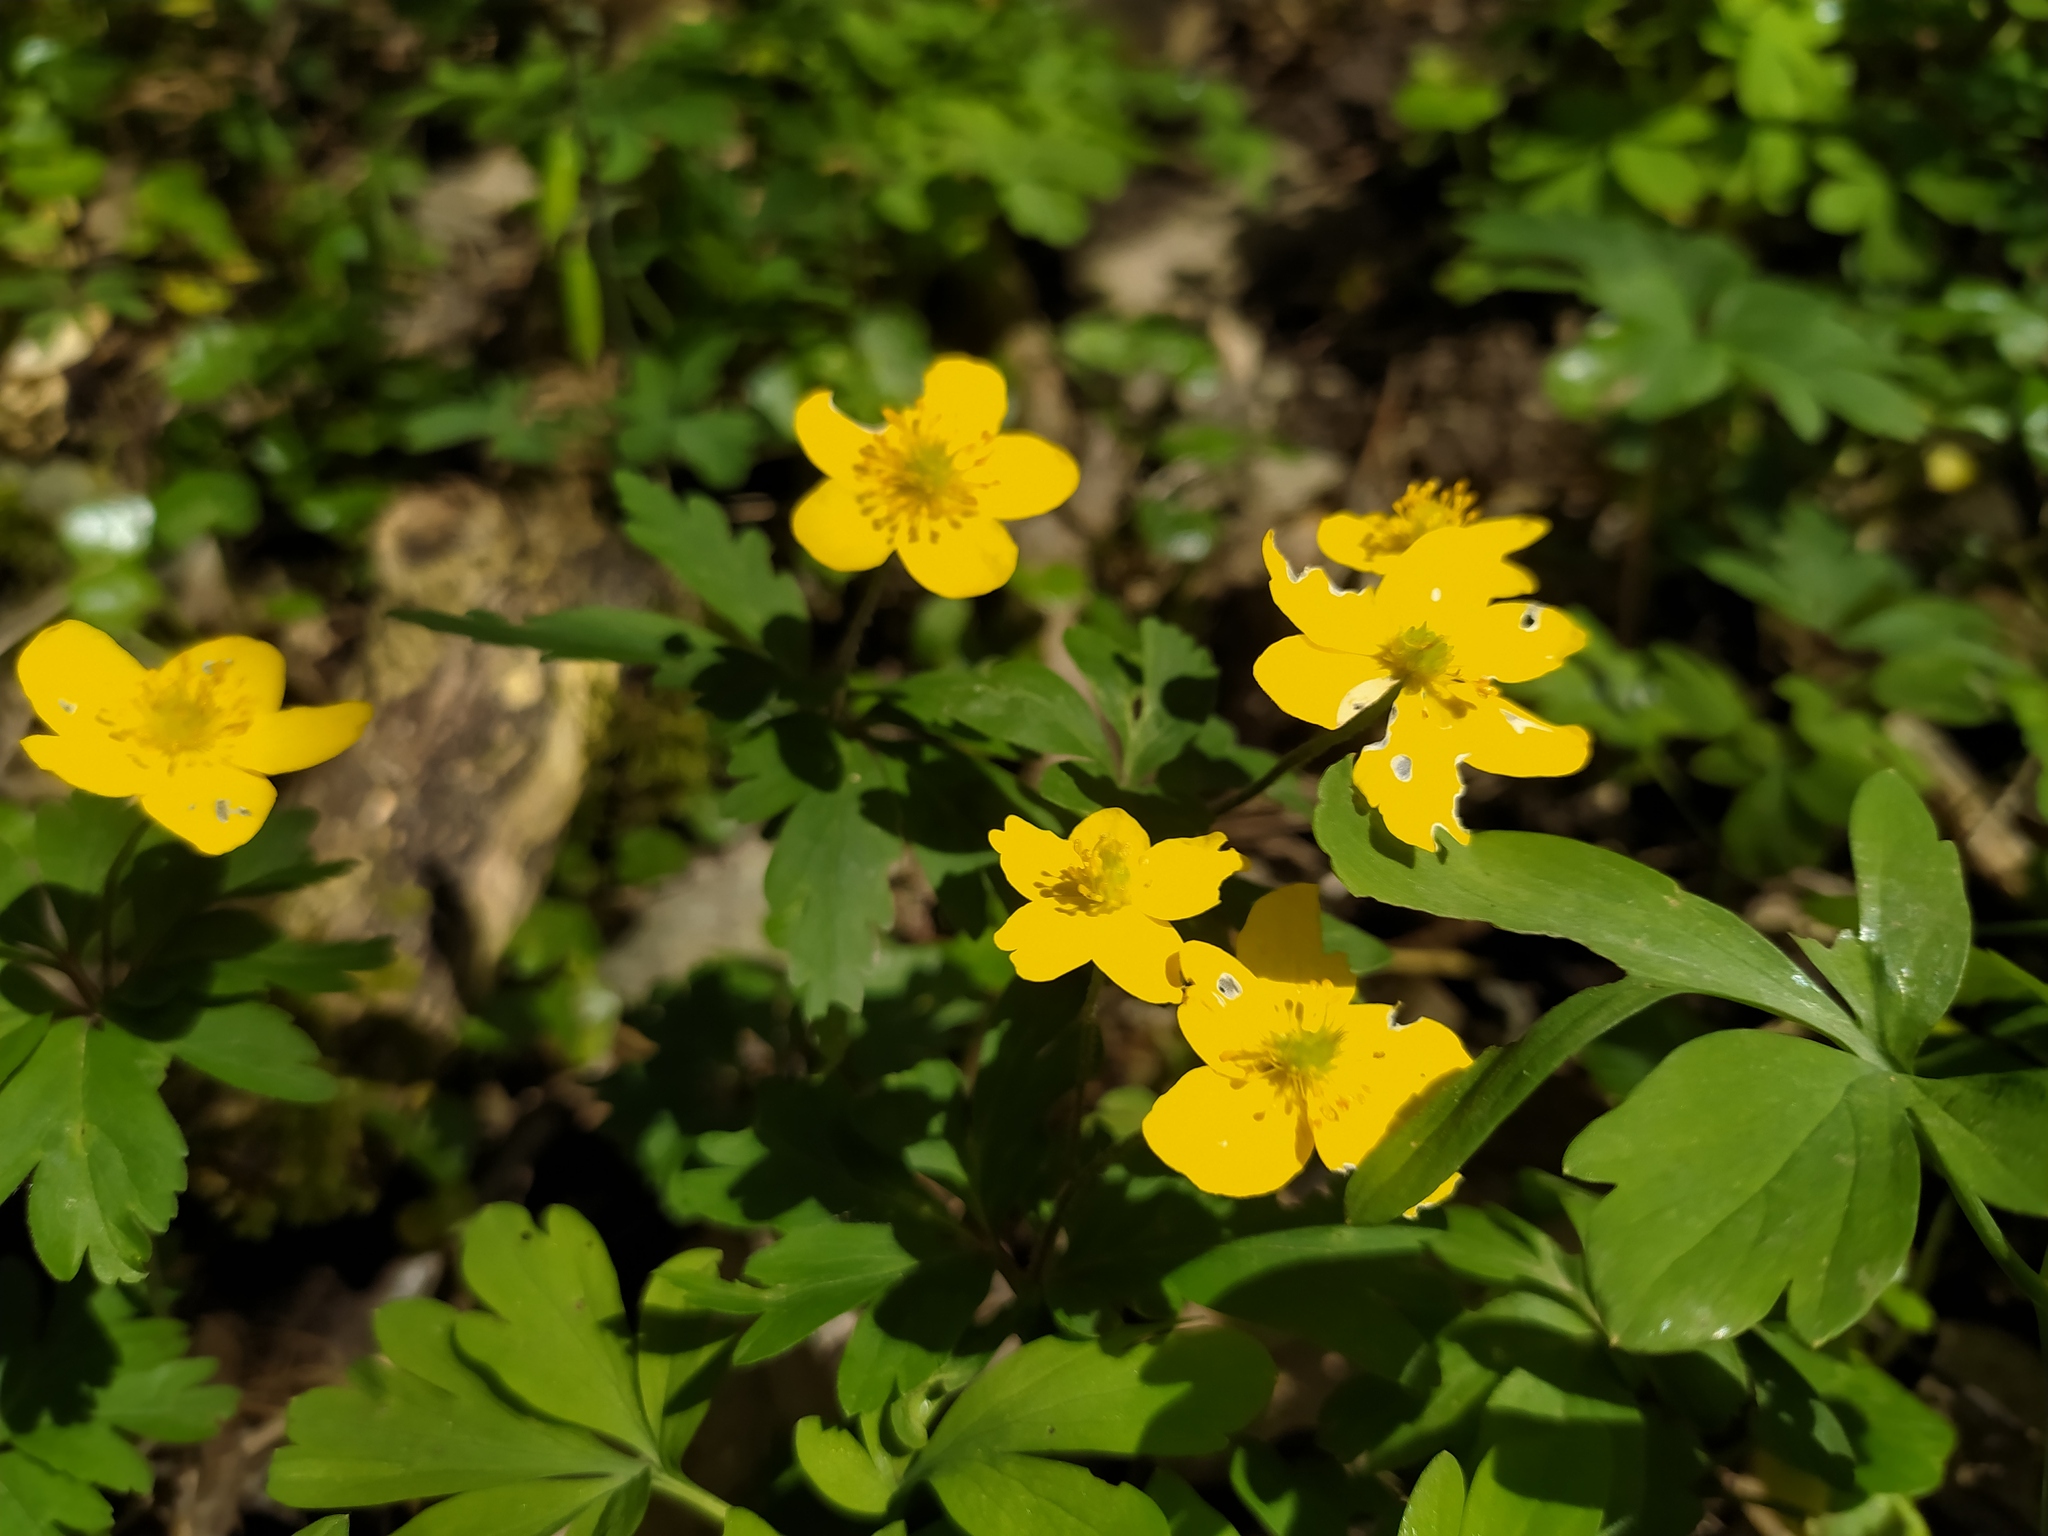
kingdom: Plantae
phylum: Tracheophyta
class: Magnoliopsida
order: Ranunculales
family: Ranunculaceae
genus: Anemone
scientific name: Anemone ranunculoides
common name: Yellow anemone
